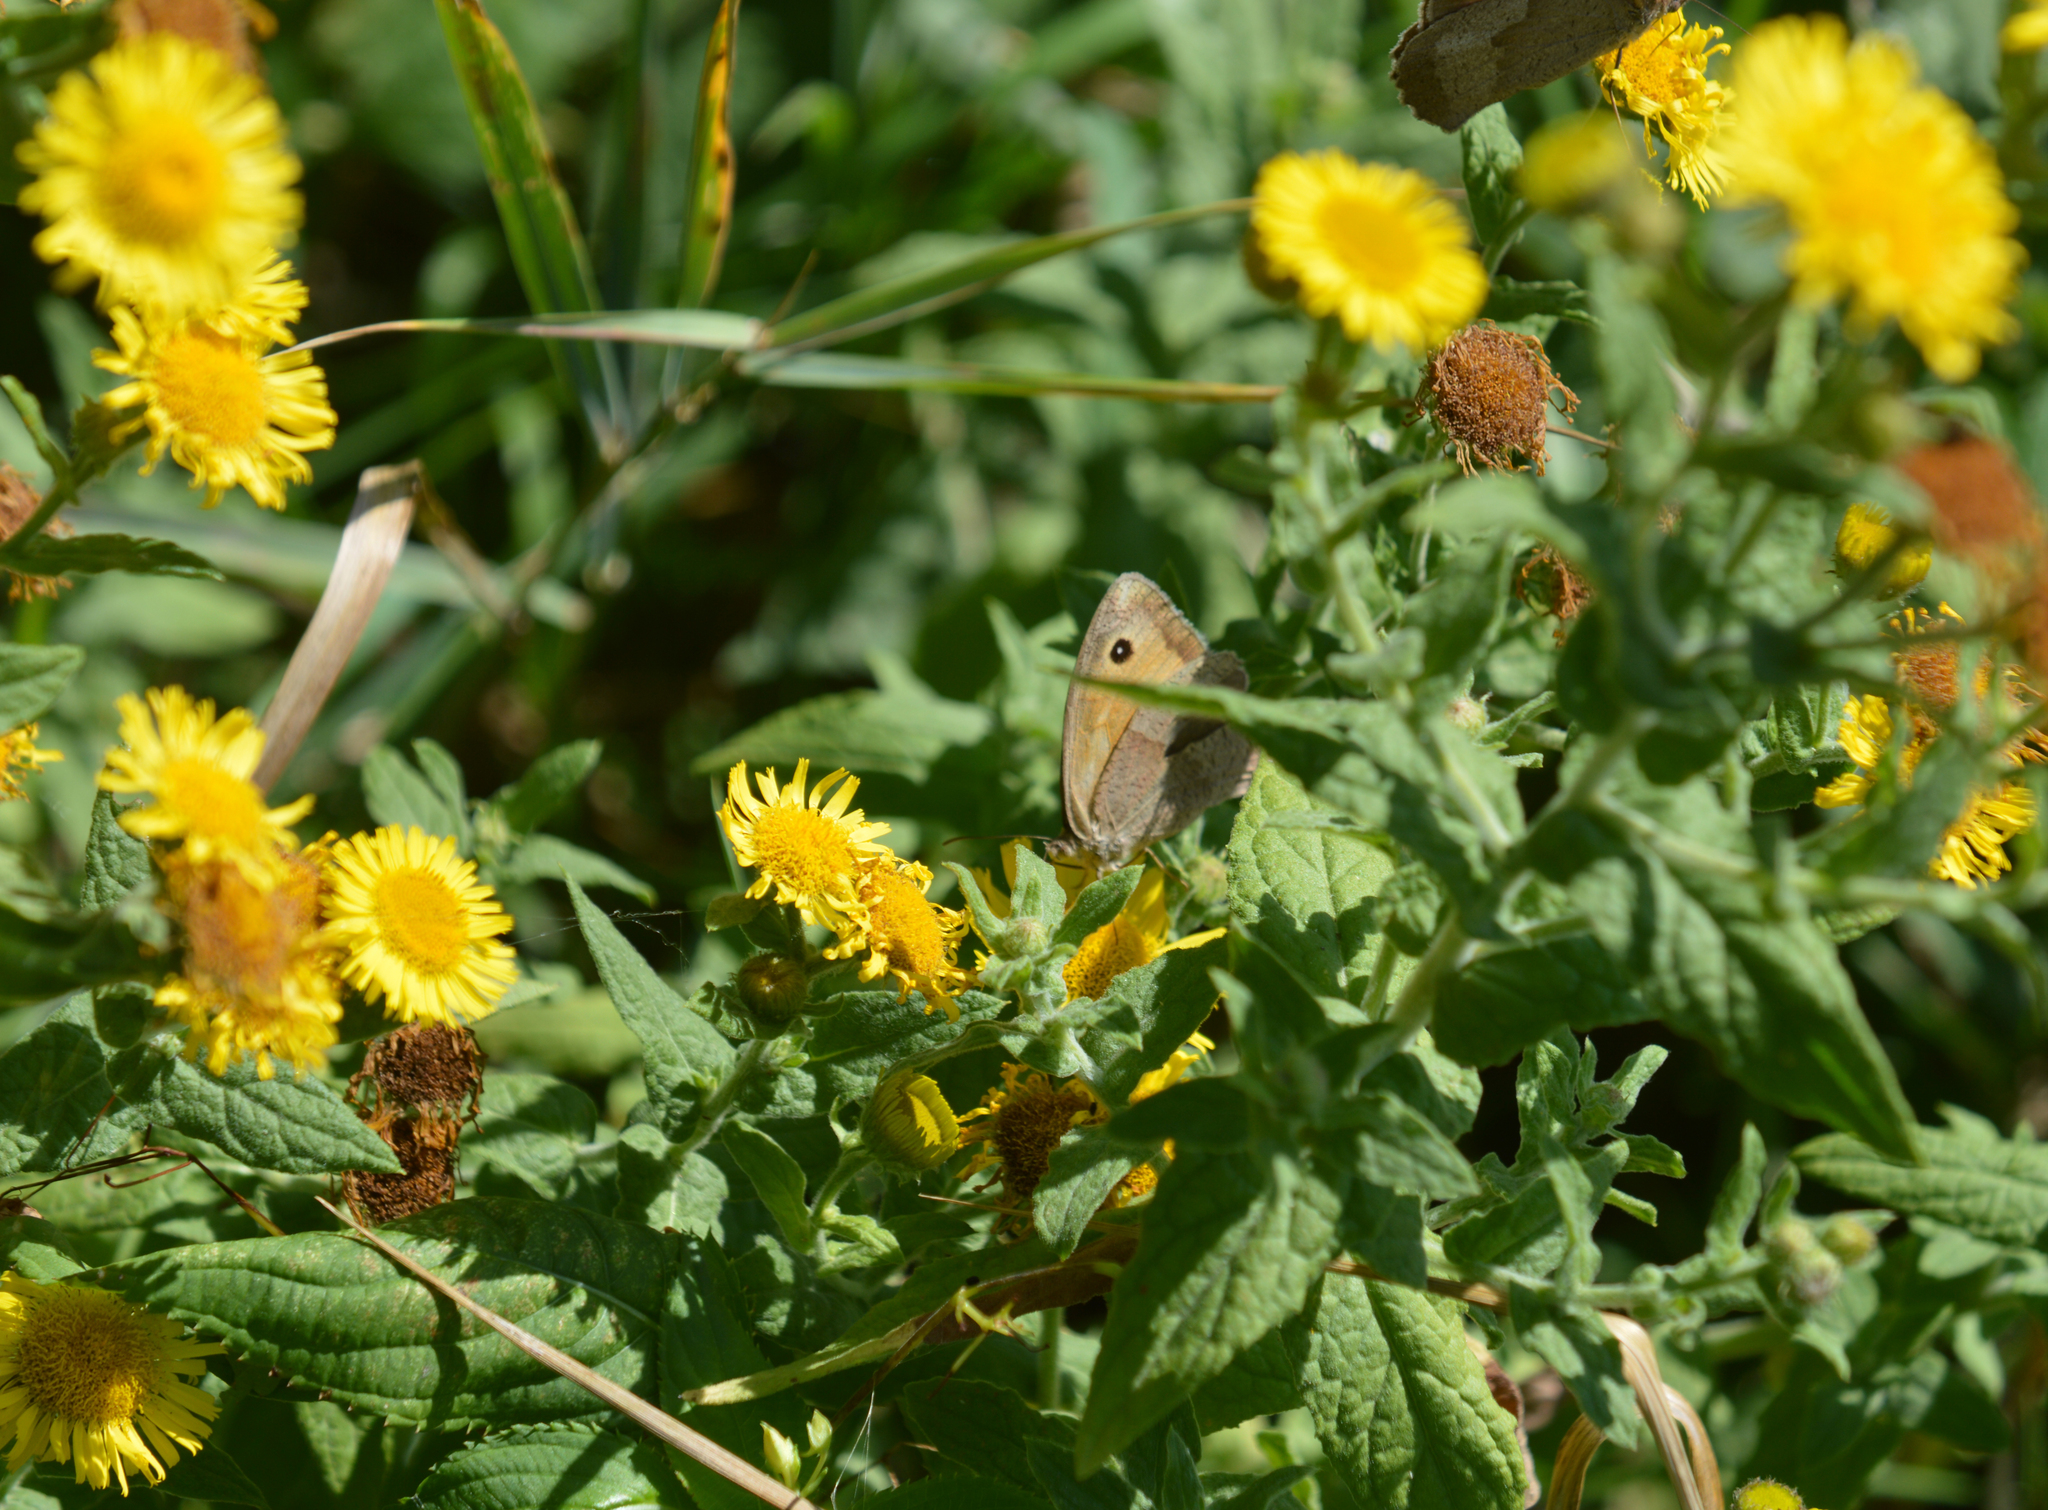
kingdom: Plantae
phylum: Tracheophyta
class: Magnoliopsida
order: Asterales
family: Asteraceae
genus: Pulicaria
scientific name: Pulicaria dysenterica
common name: Common fleabane
